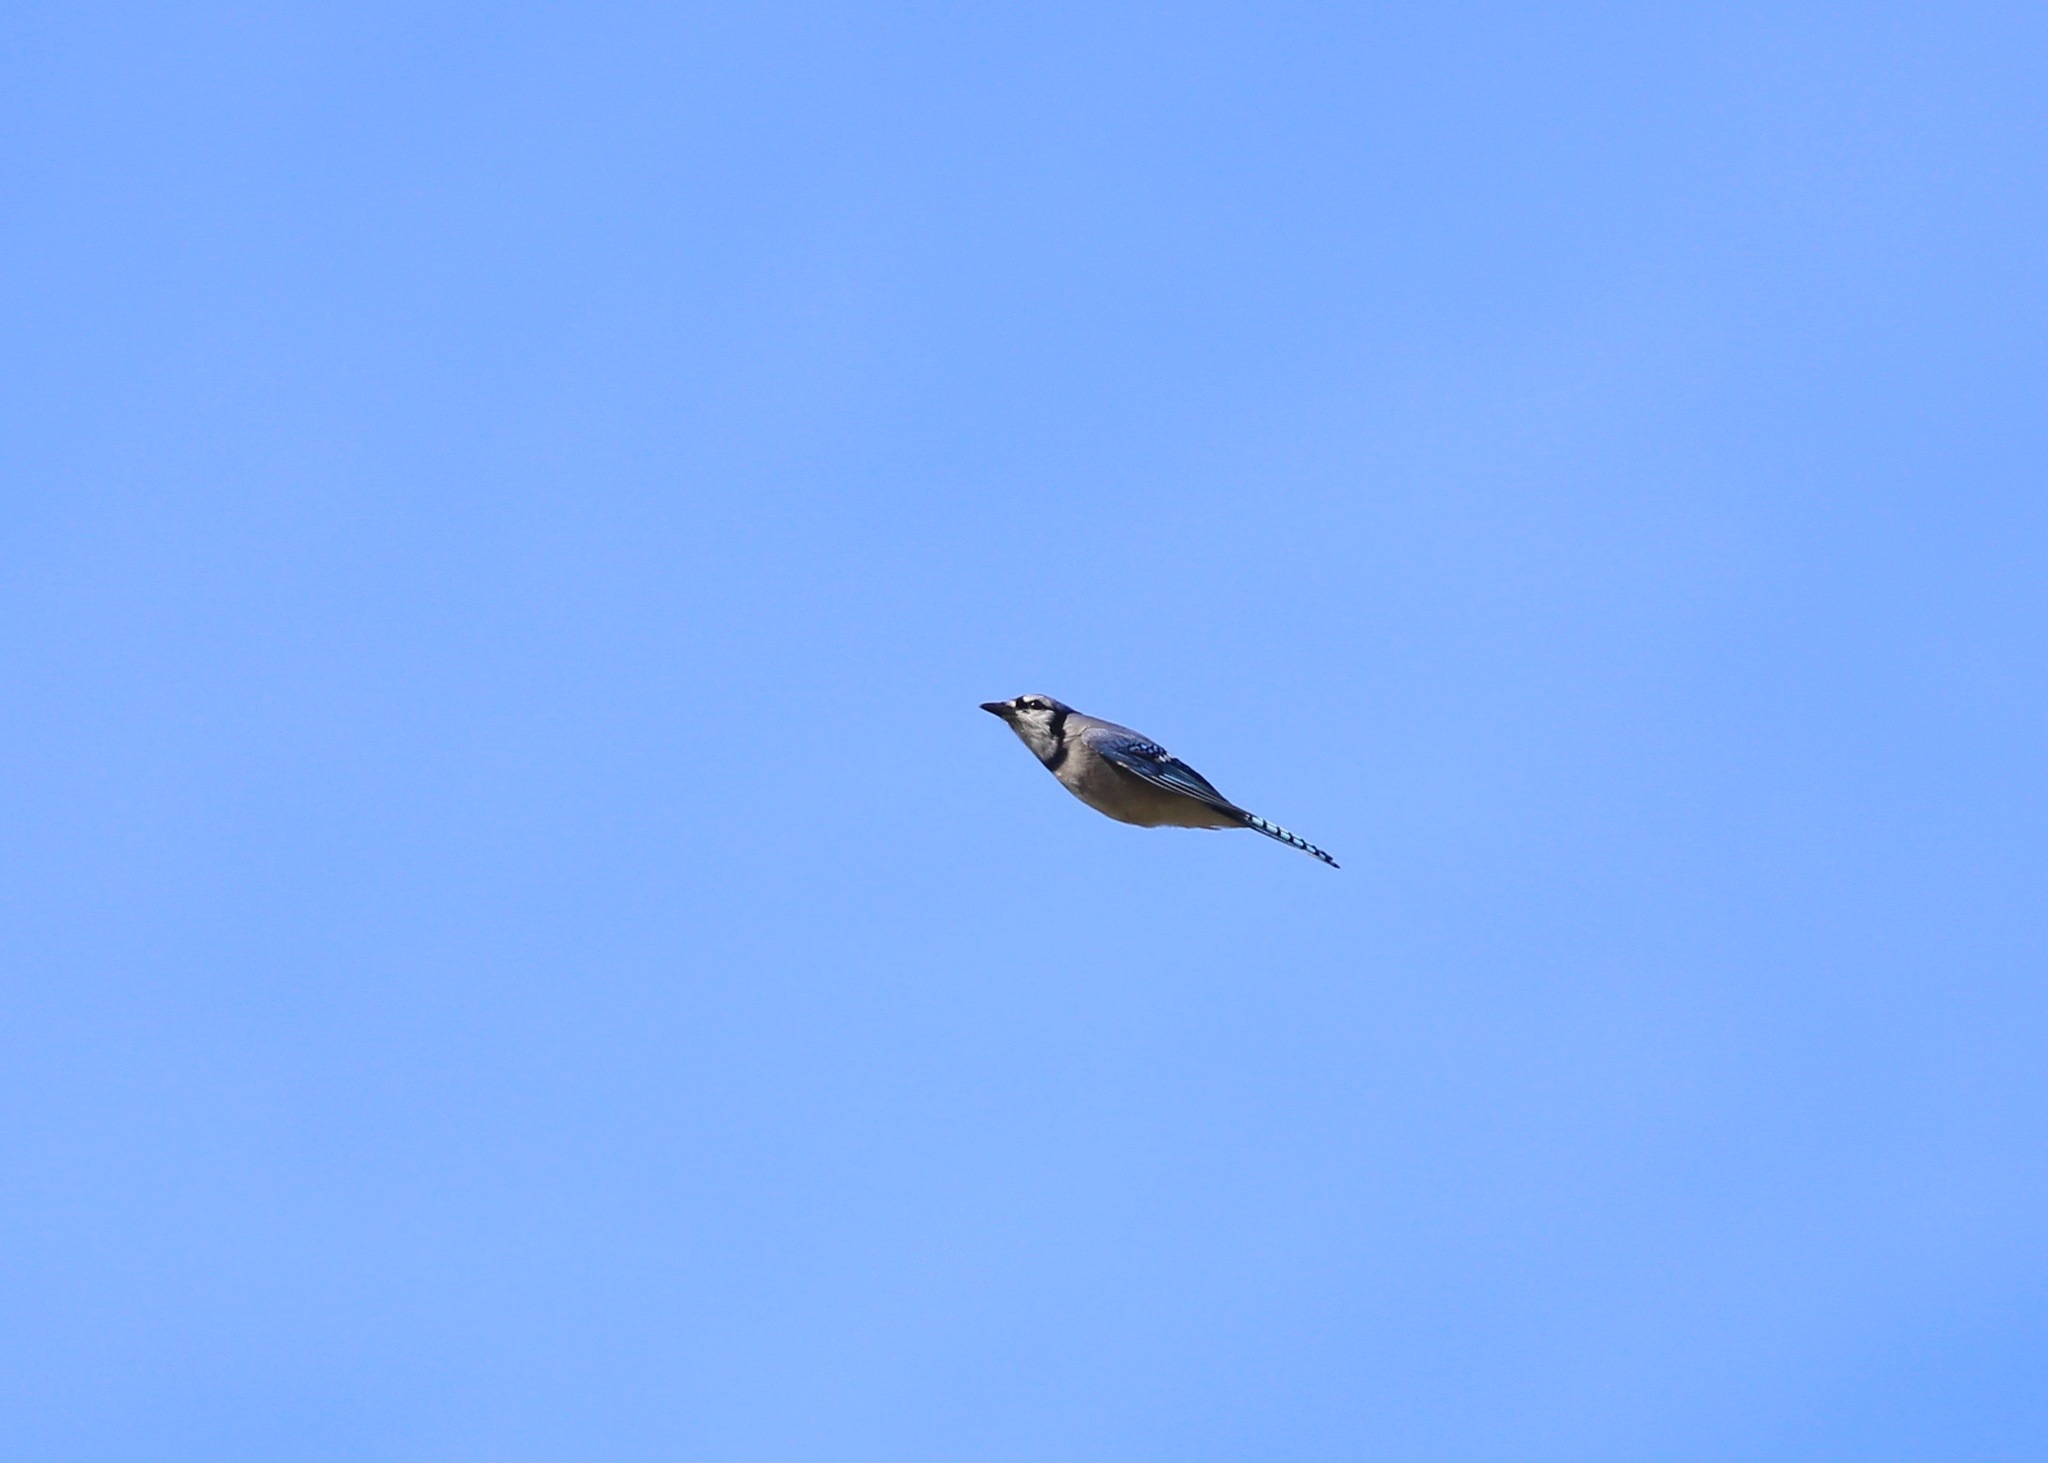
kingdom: Animalia
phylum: Chordata
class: Aves
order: Passeriformes
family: Corvidae
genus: Cyanocitta
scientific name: Cyanocitta cristata
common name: Blue jay
